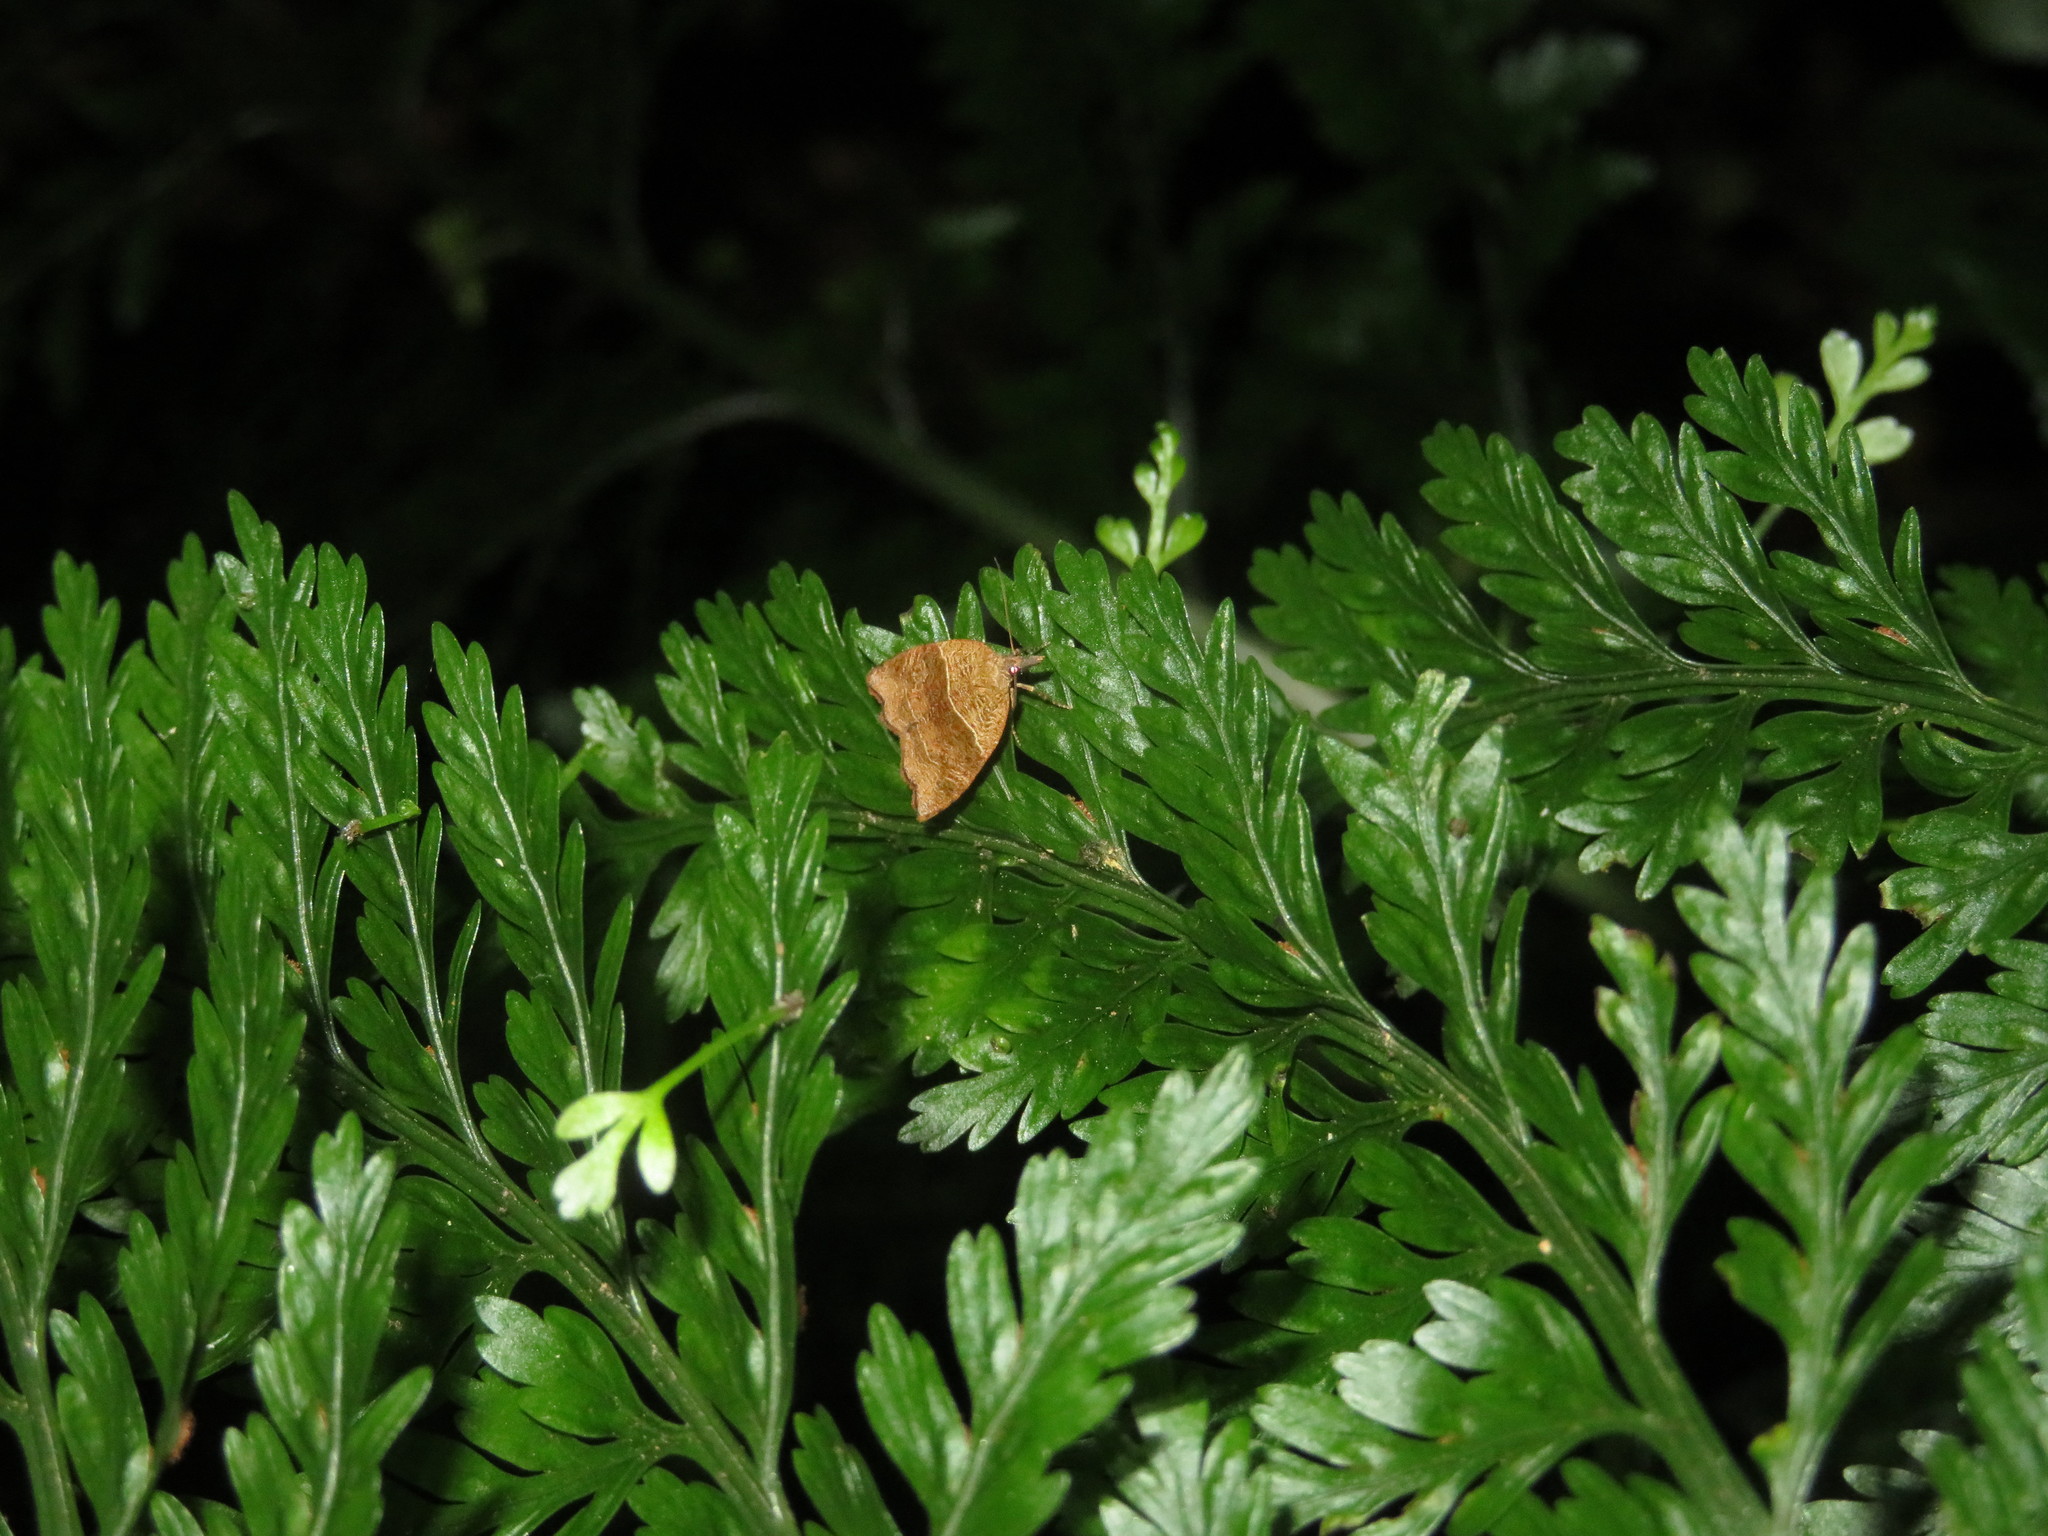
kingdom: Animalia
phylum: Arthropoda
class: Insecta
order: Lepidoptera
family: Tortricidae
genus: Cnephasia
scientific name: Cnephasia incertana
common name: Light grey tortrix
